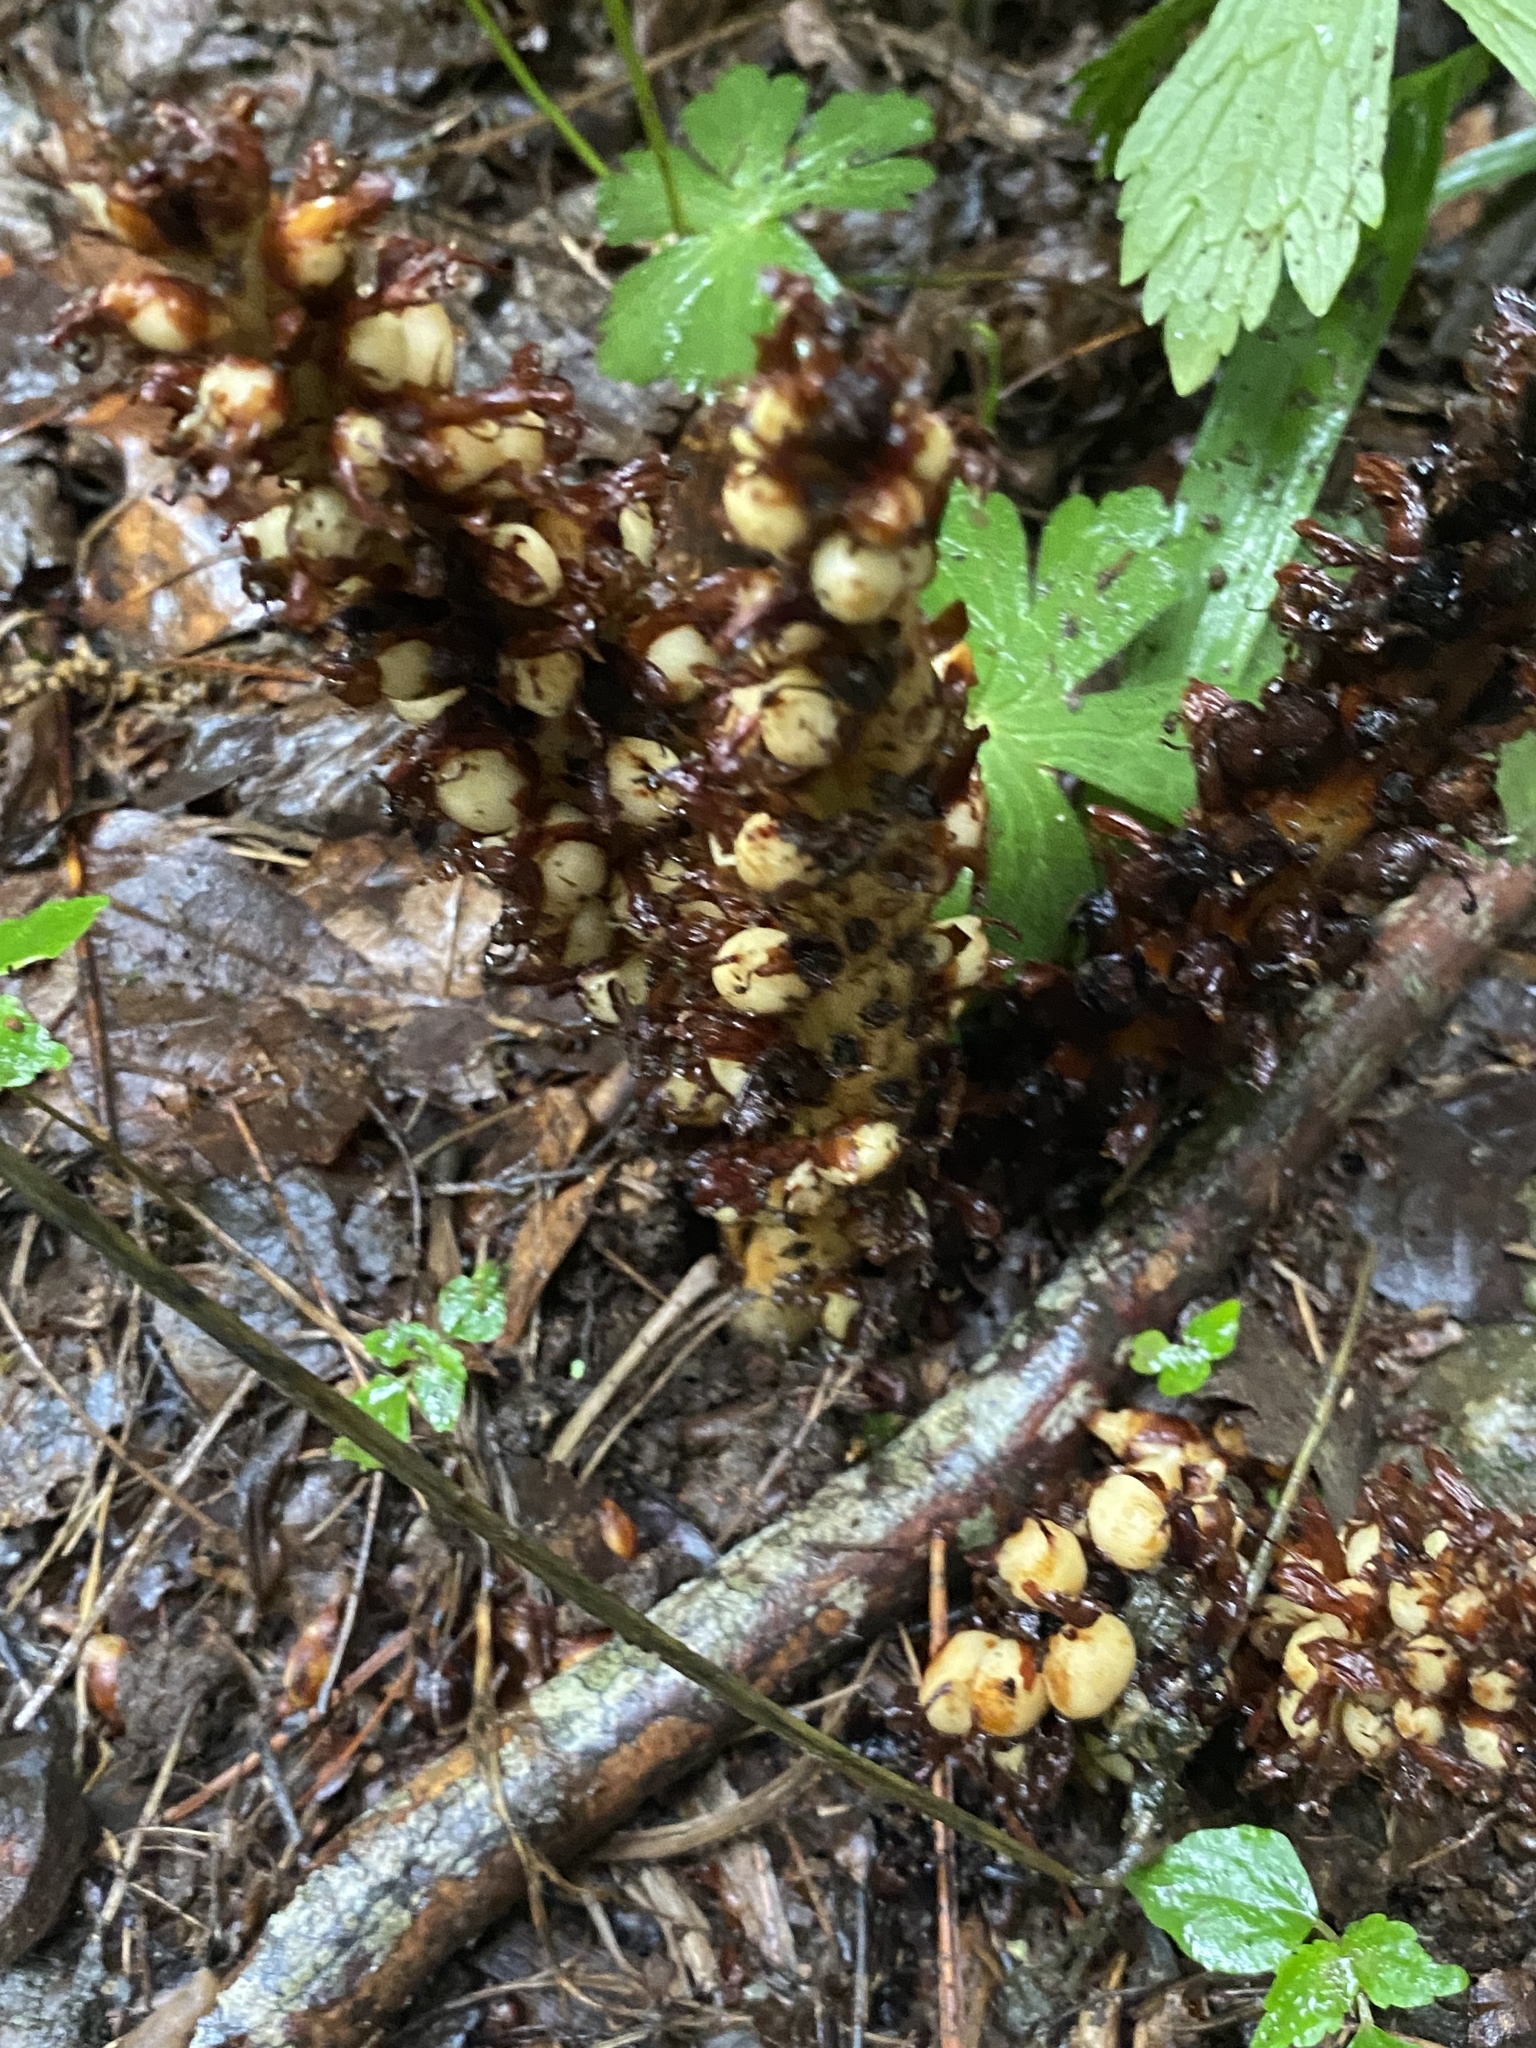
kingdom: Plantae
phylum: Tracheophyta
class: Magnoliopsida
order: Lamiales
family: Orobanchaceae
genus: Conopholis
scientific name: Conopholis americana
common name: American cancer-root
